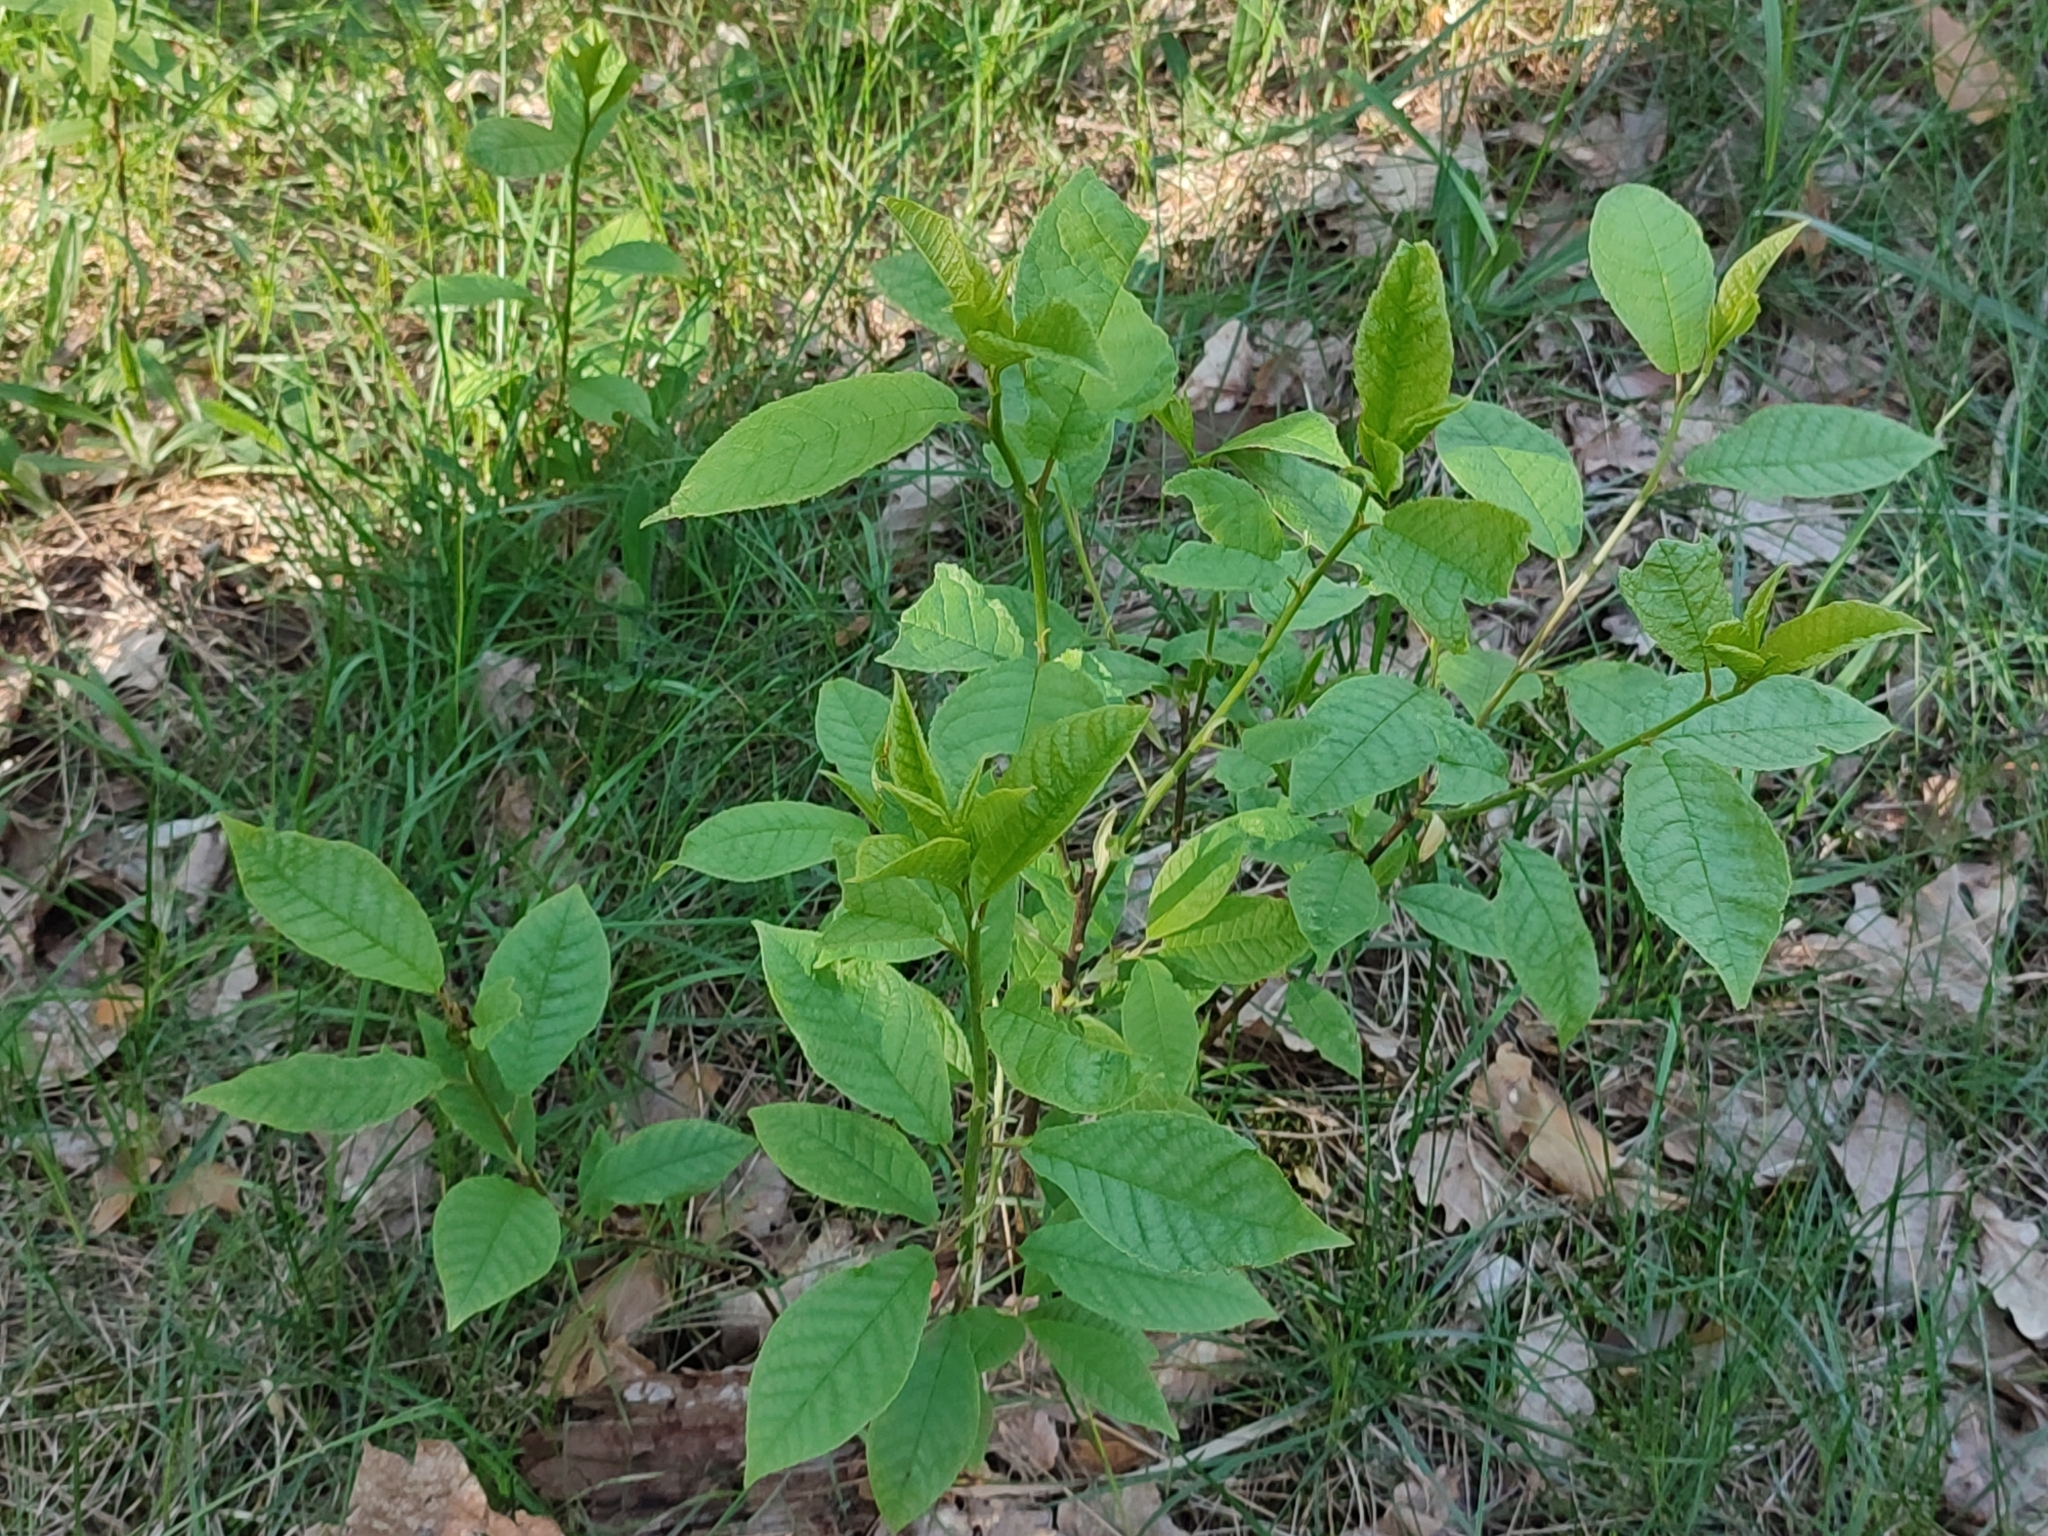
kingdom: Plantae
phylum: Tracheophyta
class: Magnoliopsida
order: Rosales
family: Rosaceae
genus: Prunus
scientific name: Prunus padus
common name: Bird cherry
